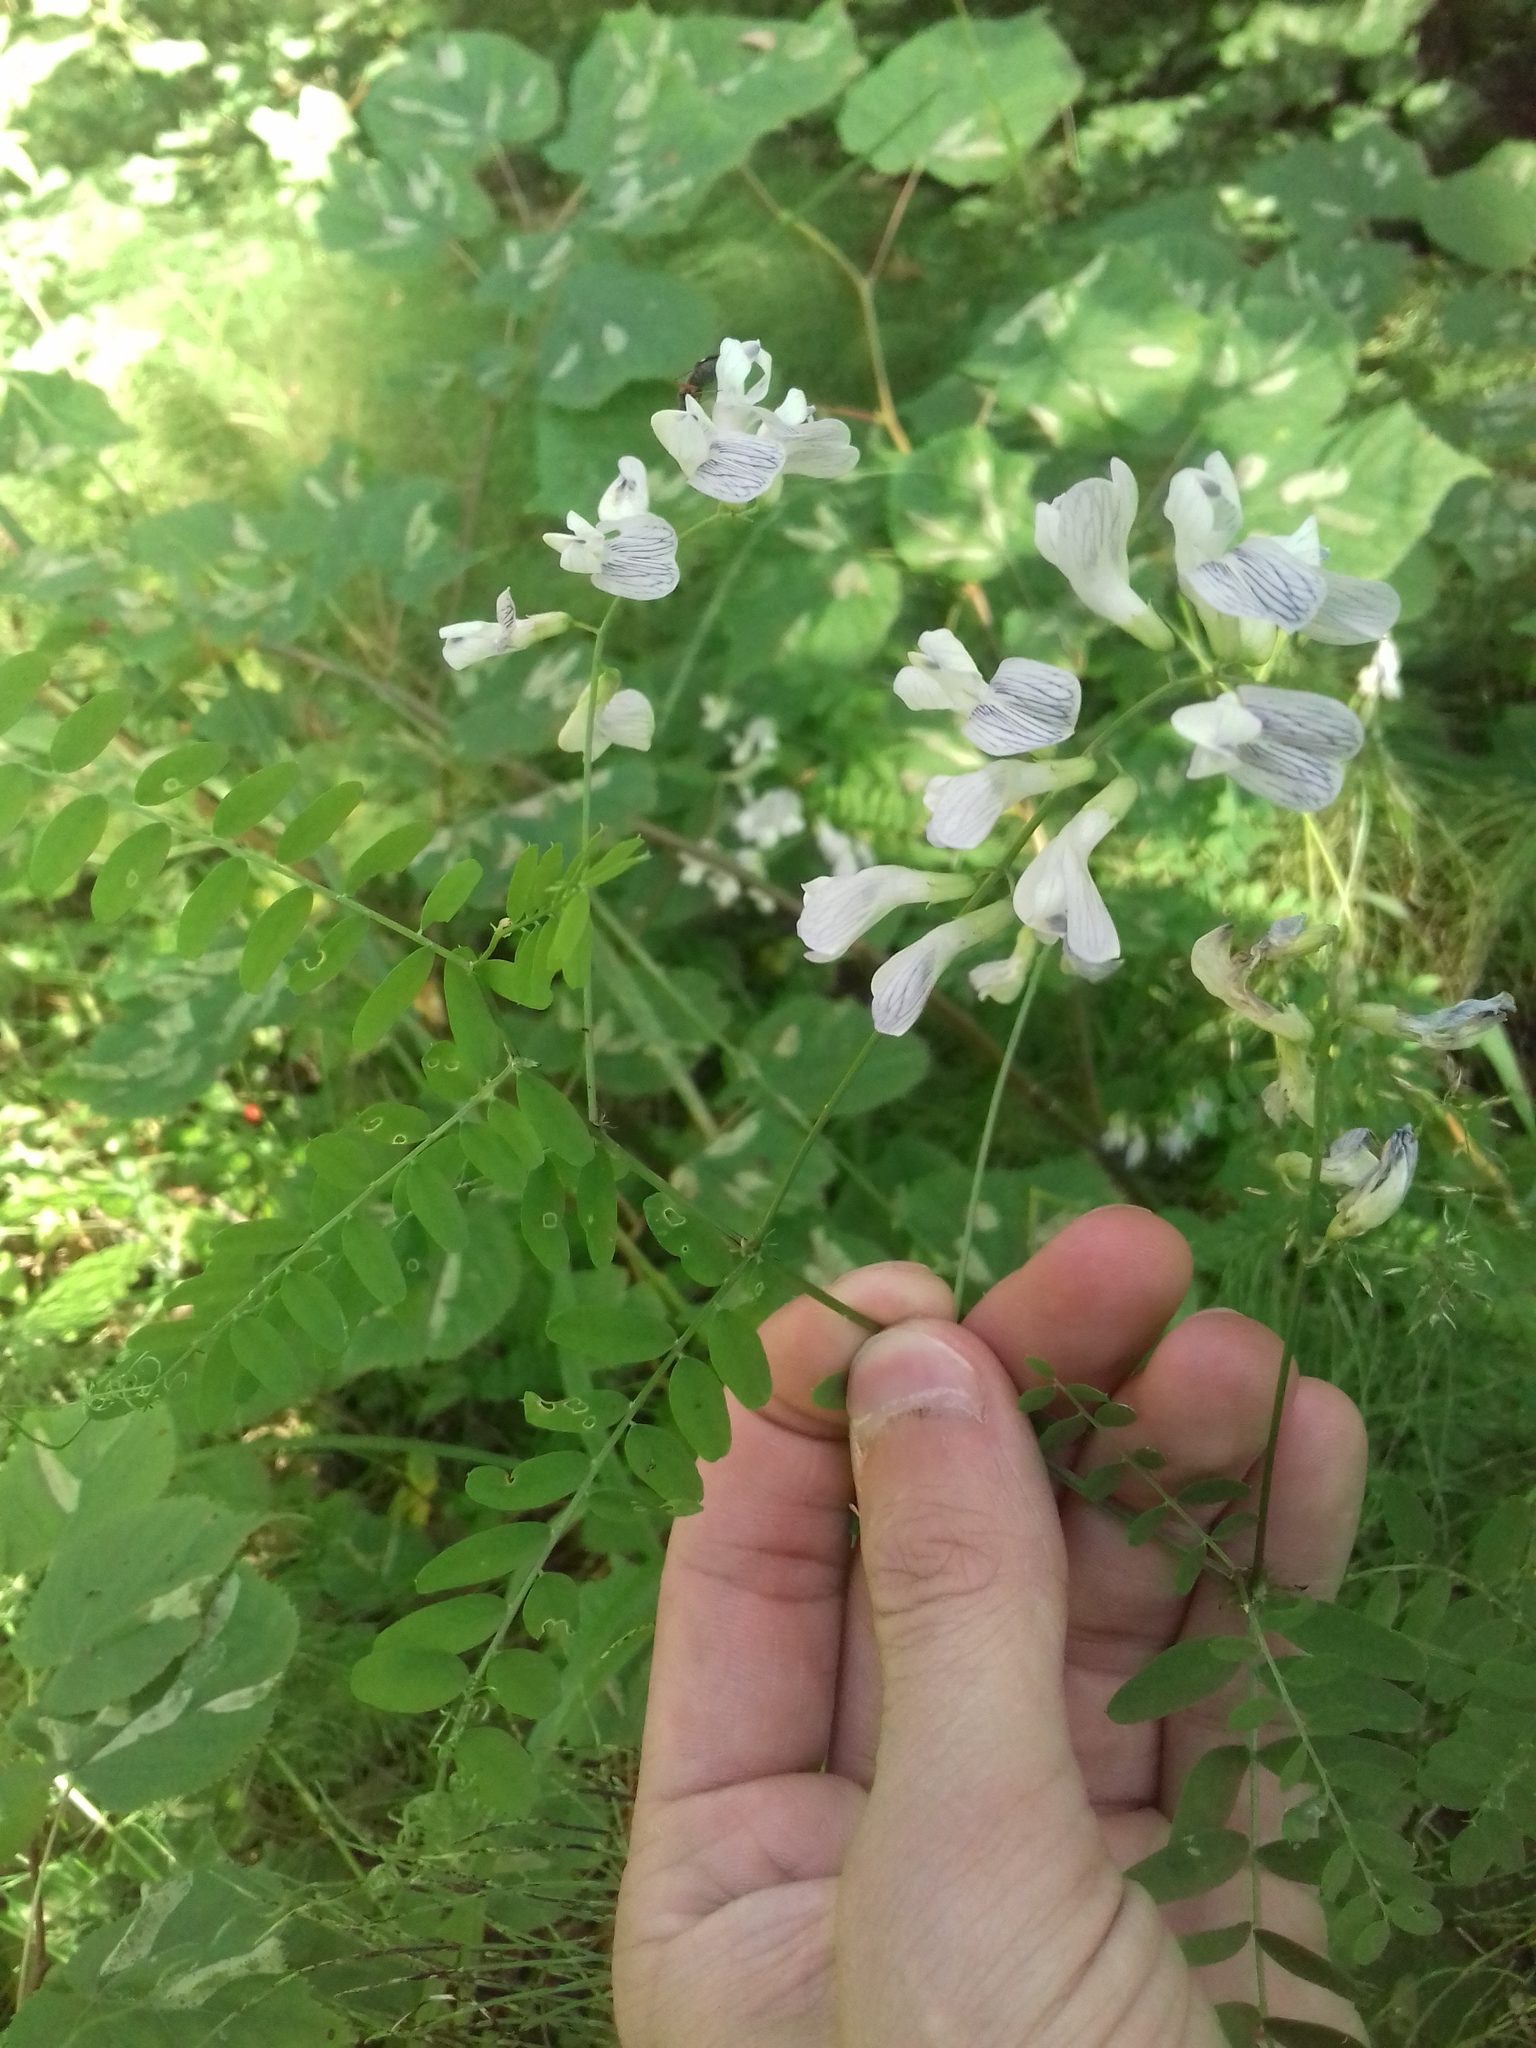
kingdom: Plantae
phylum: Tracheophyta
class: Magnoliopsida
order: Fabales
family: Fabaceae
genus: Vicia
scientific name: Vicia sylvatica
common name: Wood vetch
